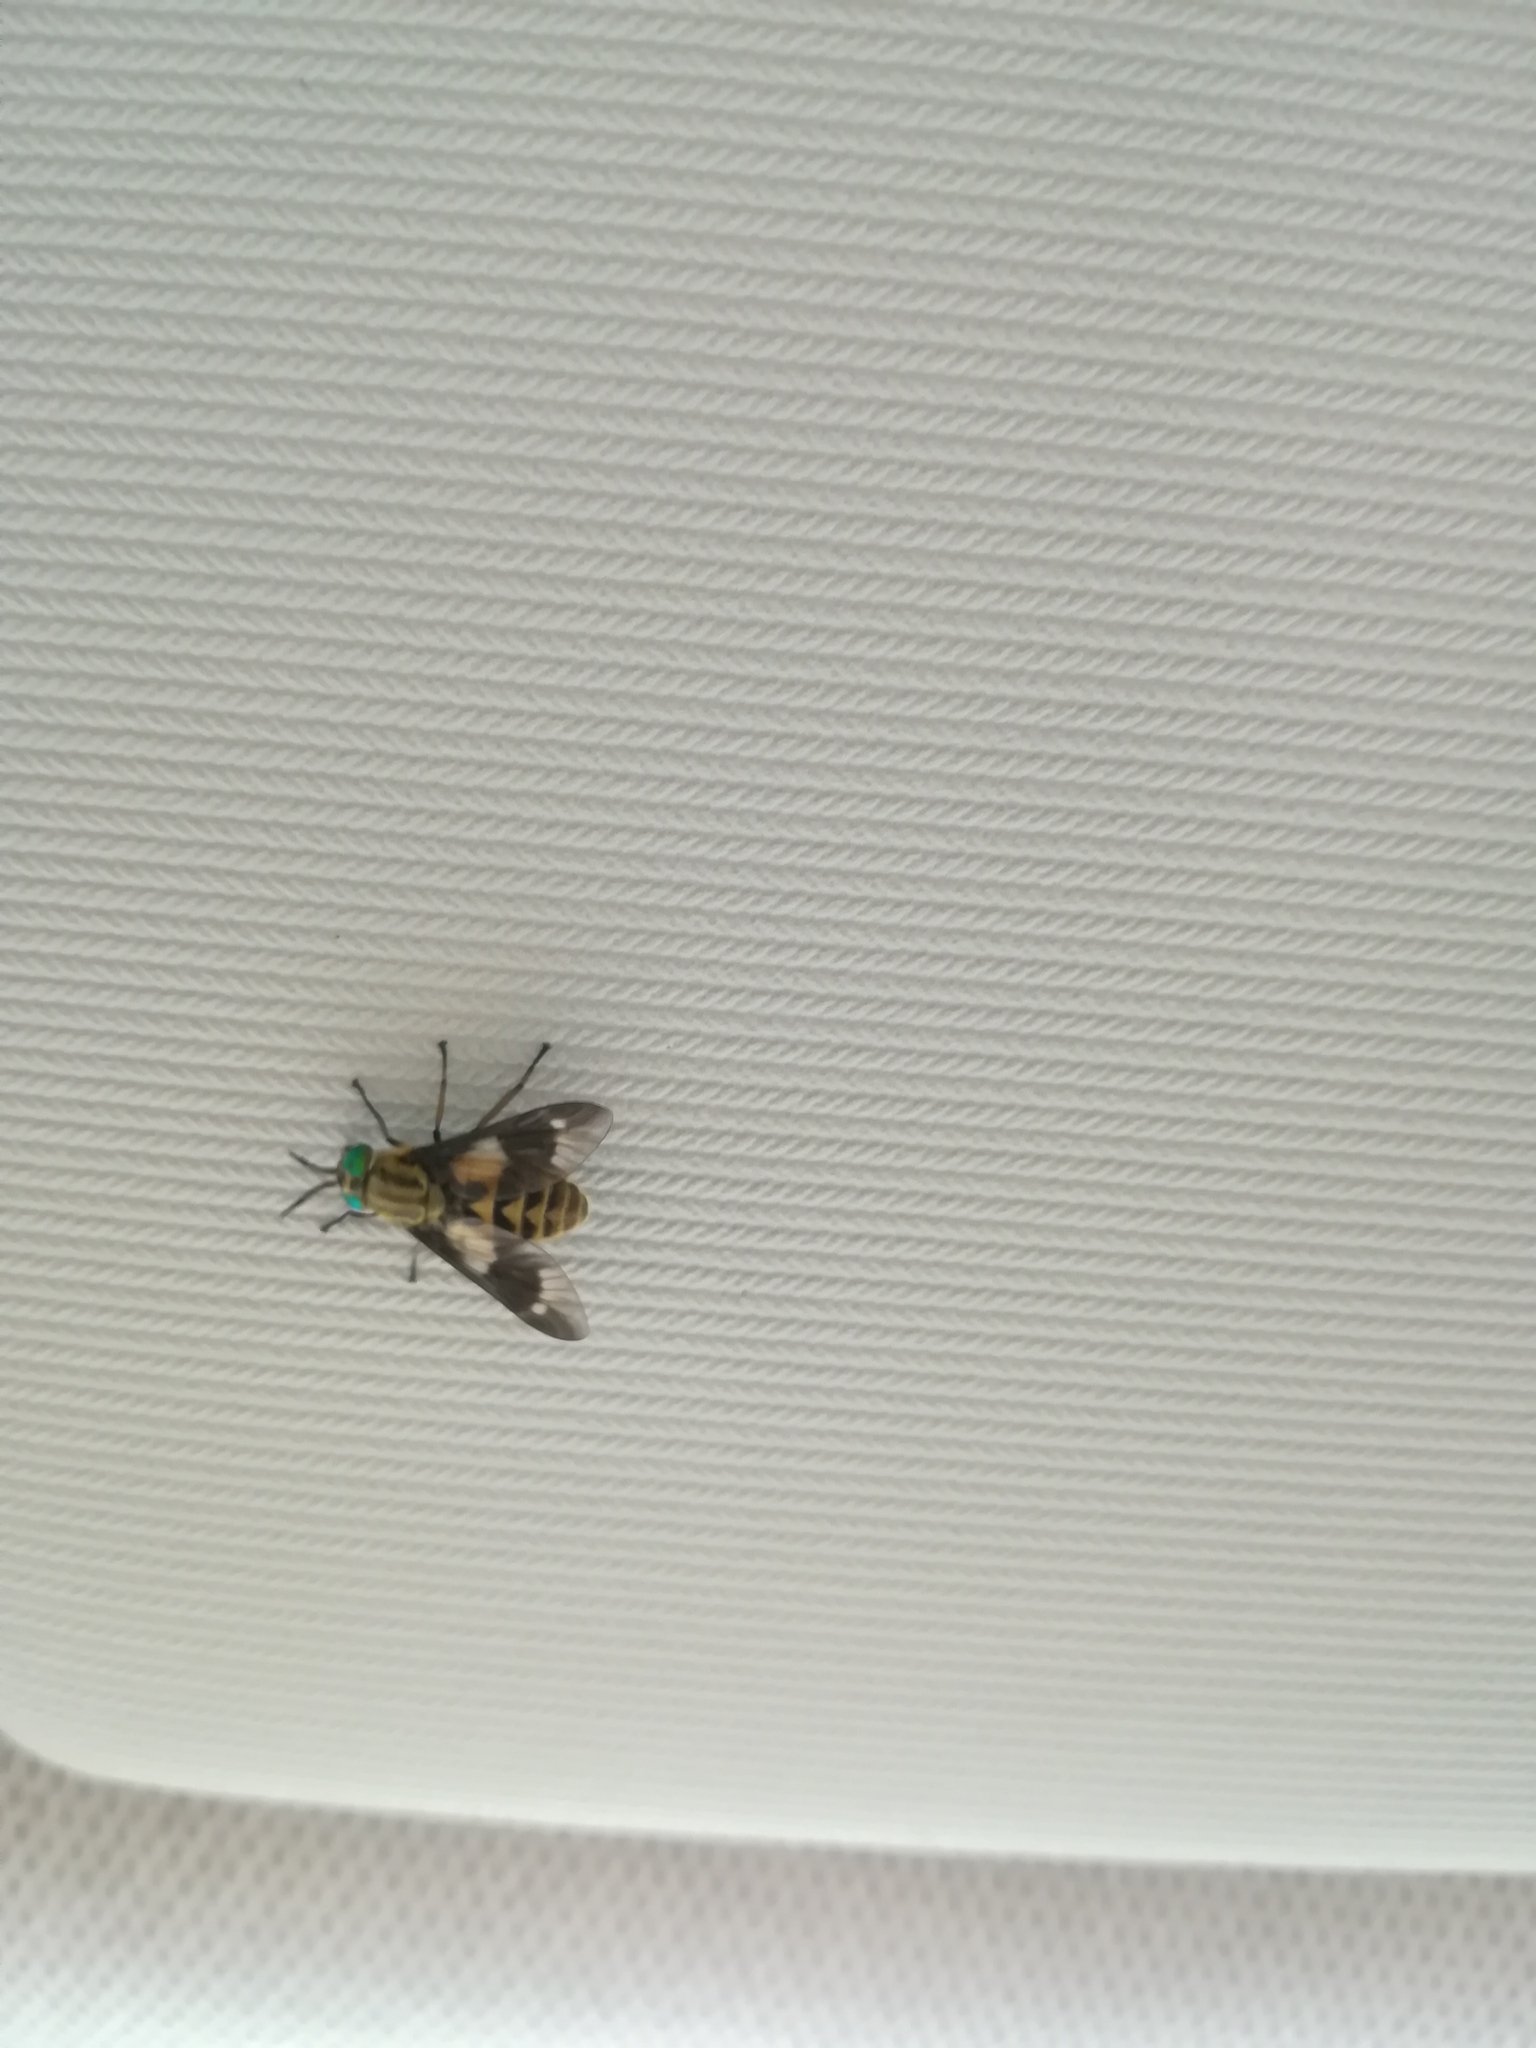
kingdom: Animalia
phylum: Arthropoda
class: Insecta
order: Diptera
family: Tabanidae
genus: Chrysops
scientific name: Chrysops relictus
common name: Twin-lobed deerfly
